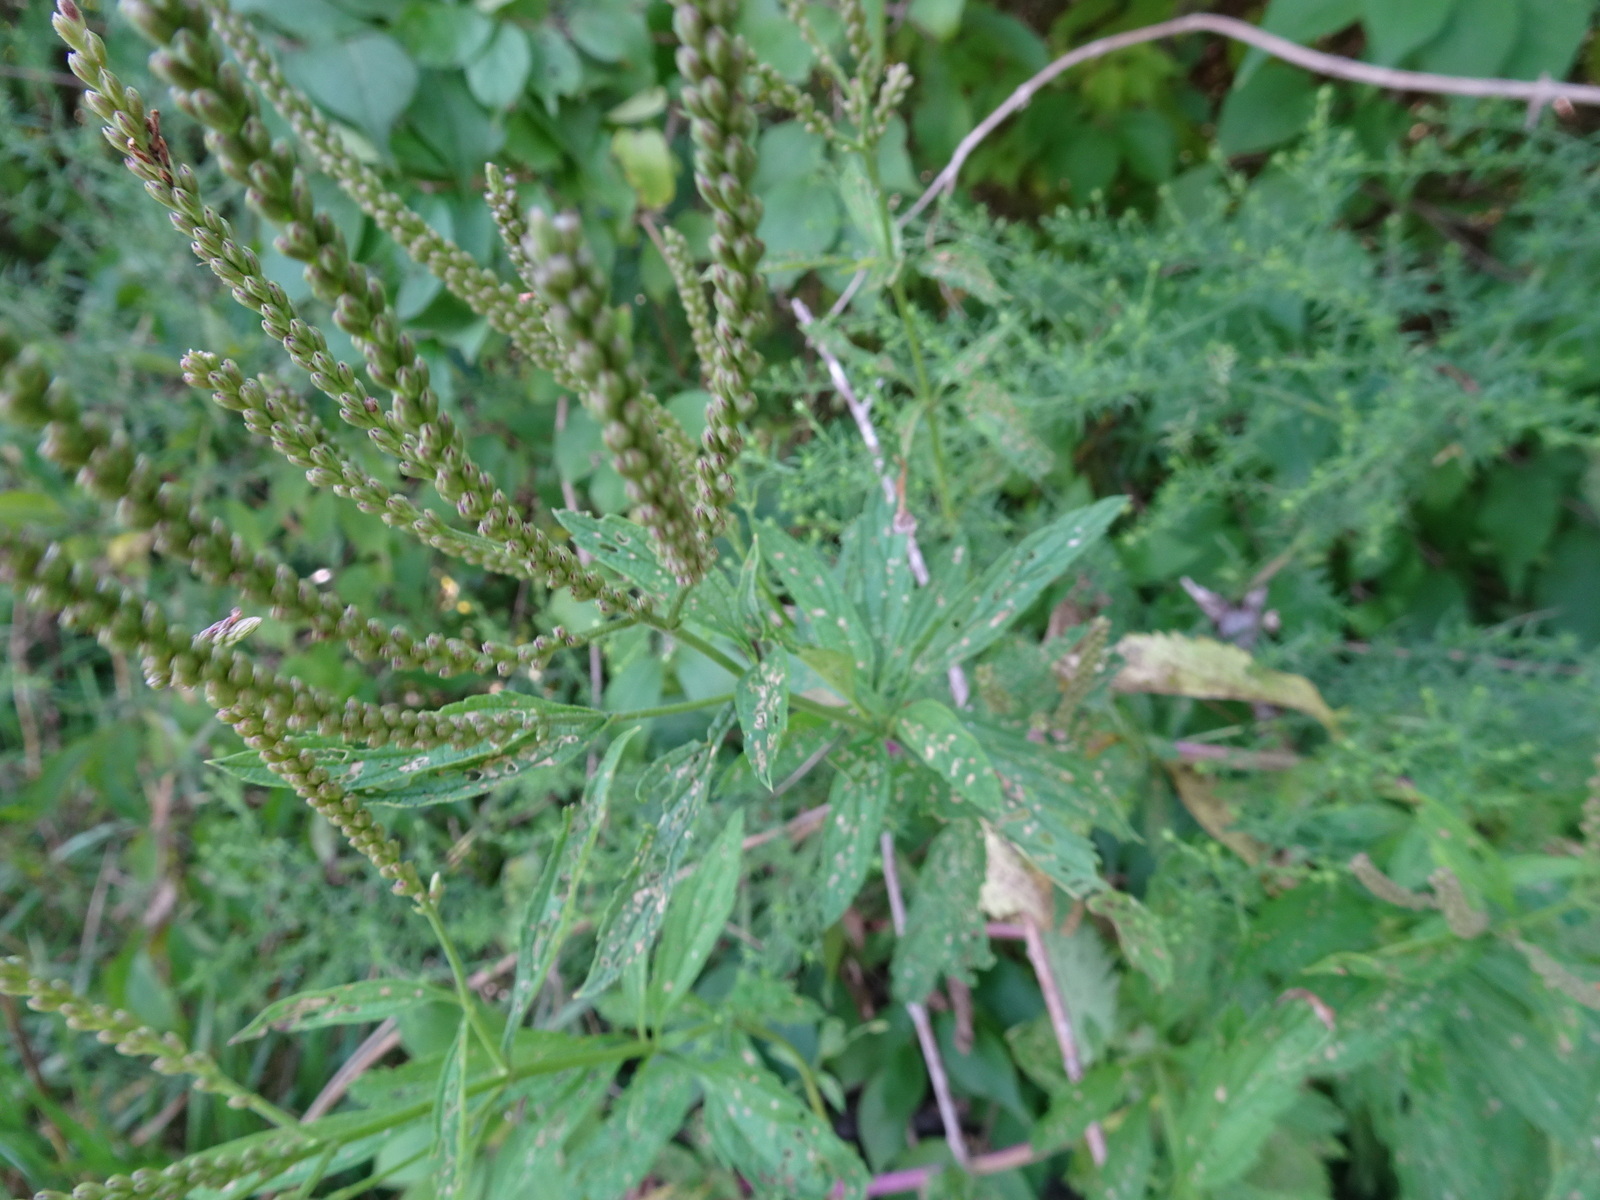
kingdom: Plantae
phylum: Tracheophyta
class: Magnoliopsida
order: Lamiales
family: Verbenaceae
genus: Verbena
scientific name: Verbena hastata
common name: American blue vervain
